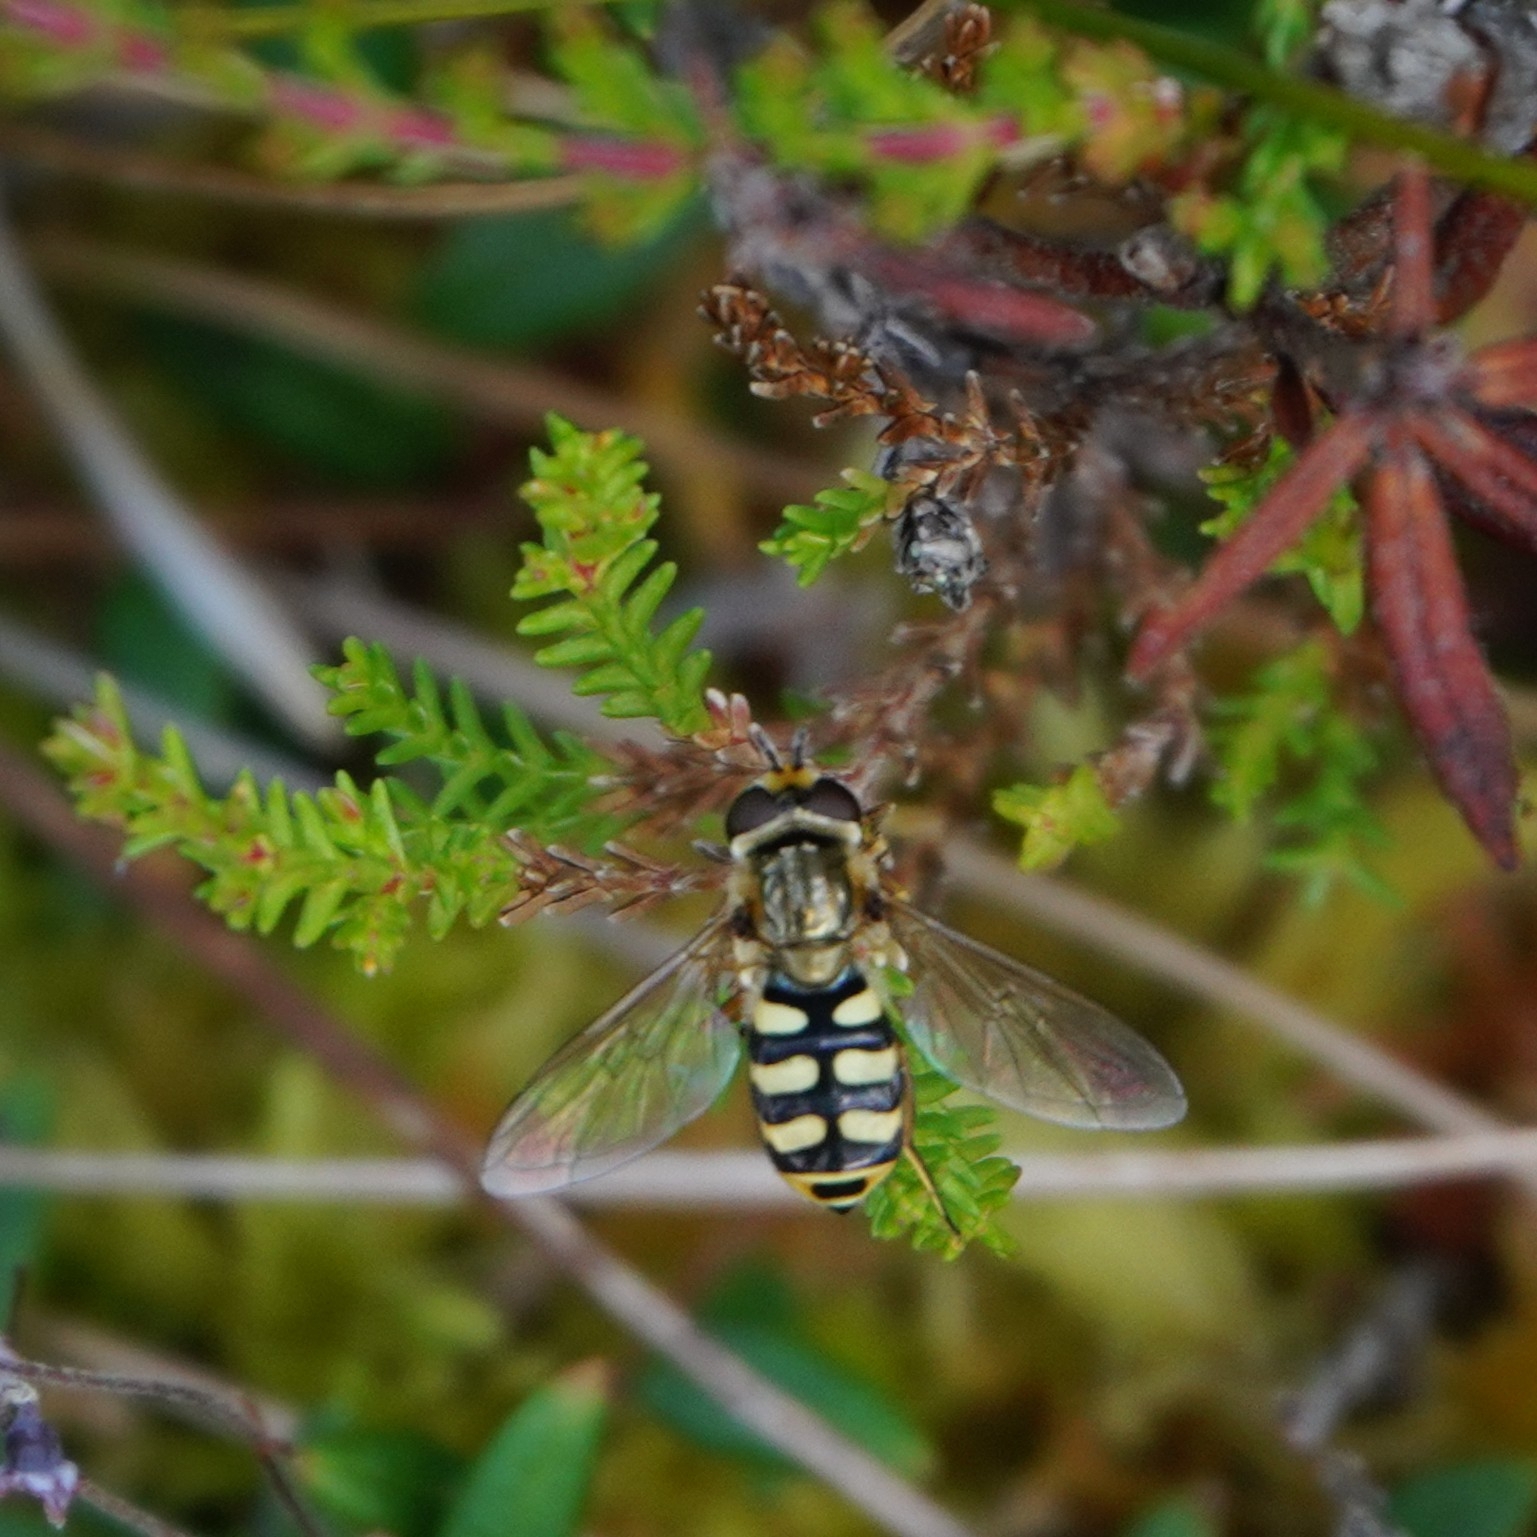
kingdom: Animalia
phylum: Arthropoda
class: Insecta
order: Diptera
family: Syrphidae
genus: Eupeodes
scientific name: Eupeodes corollae
